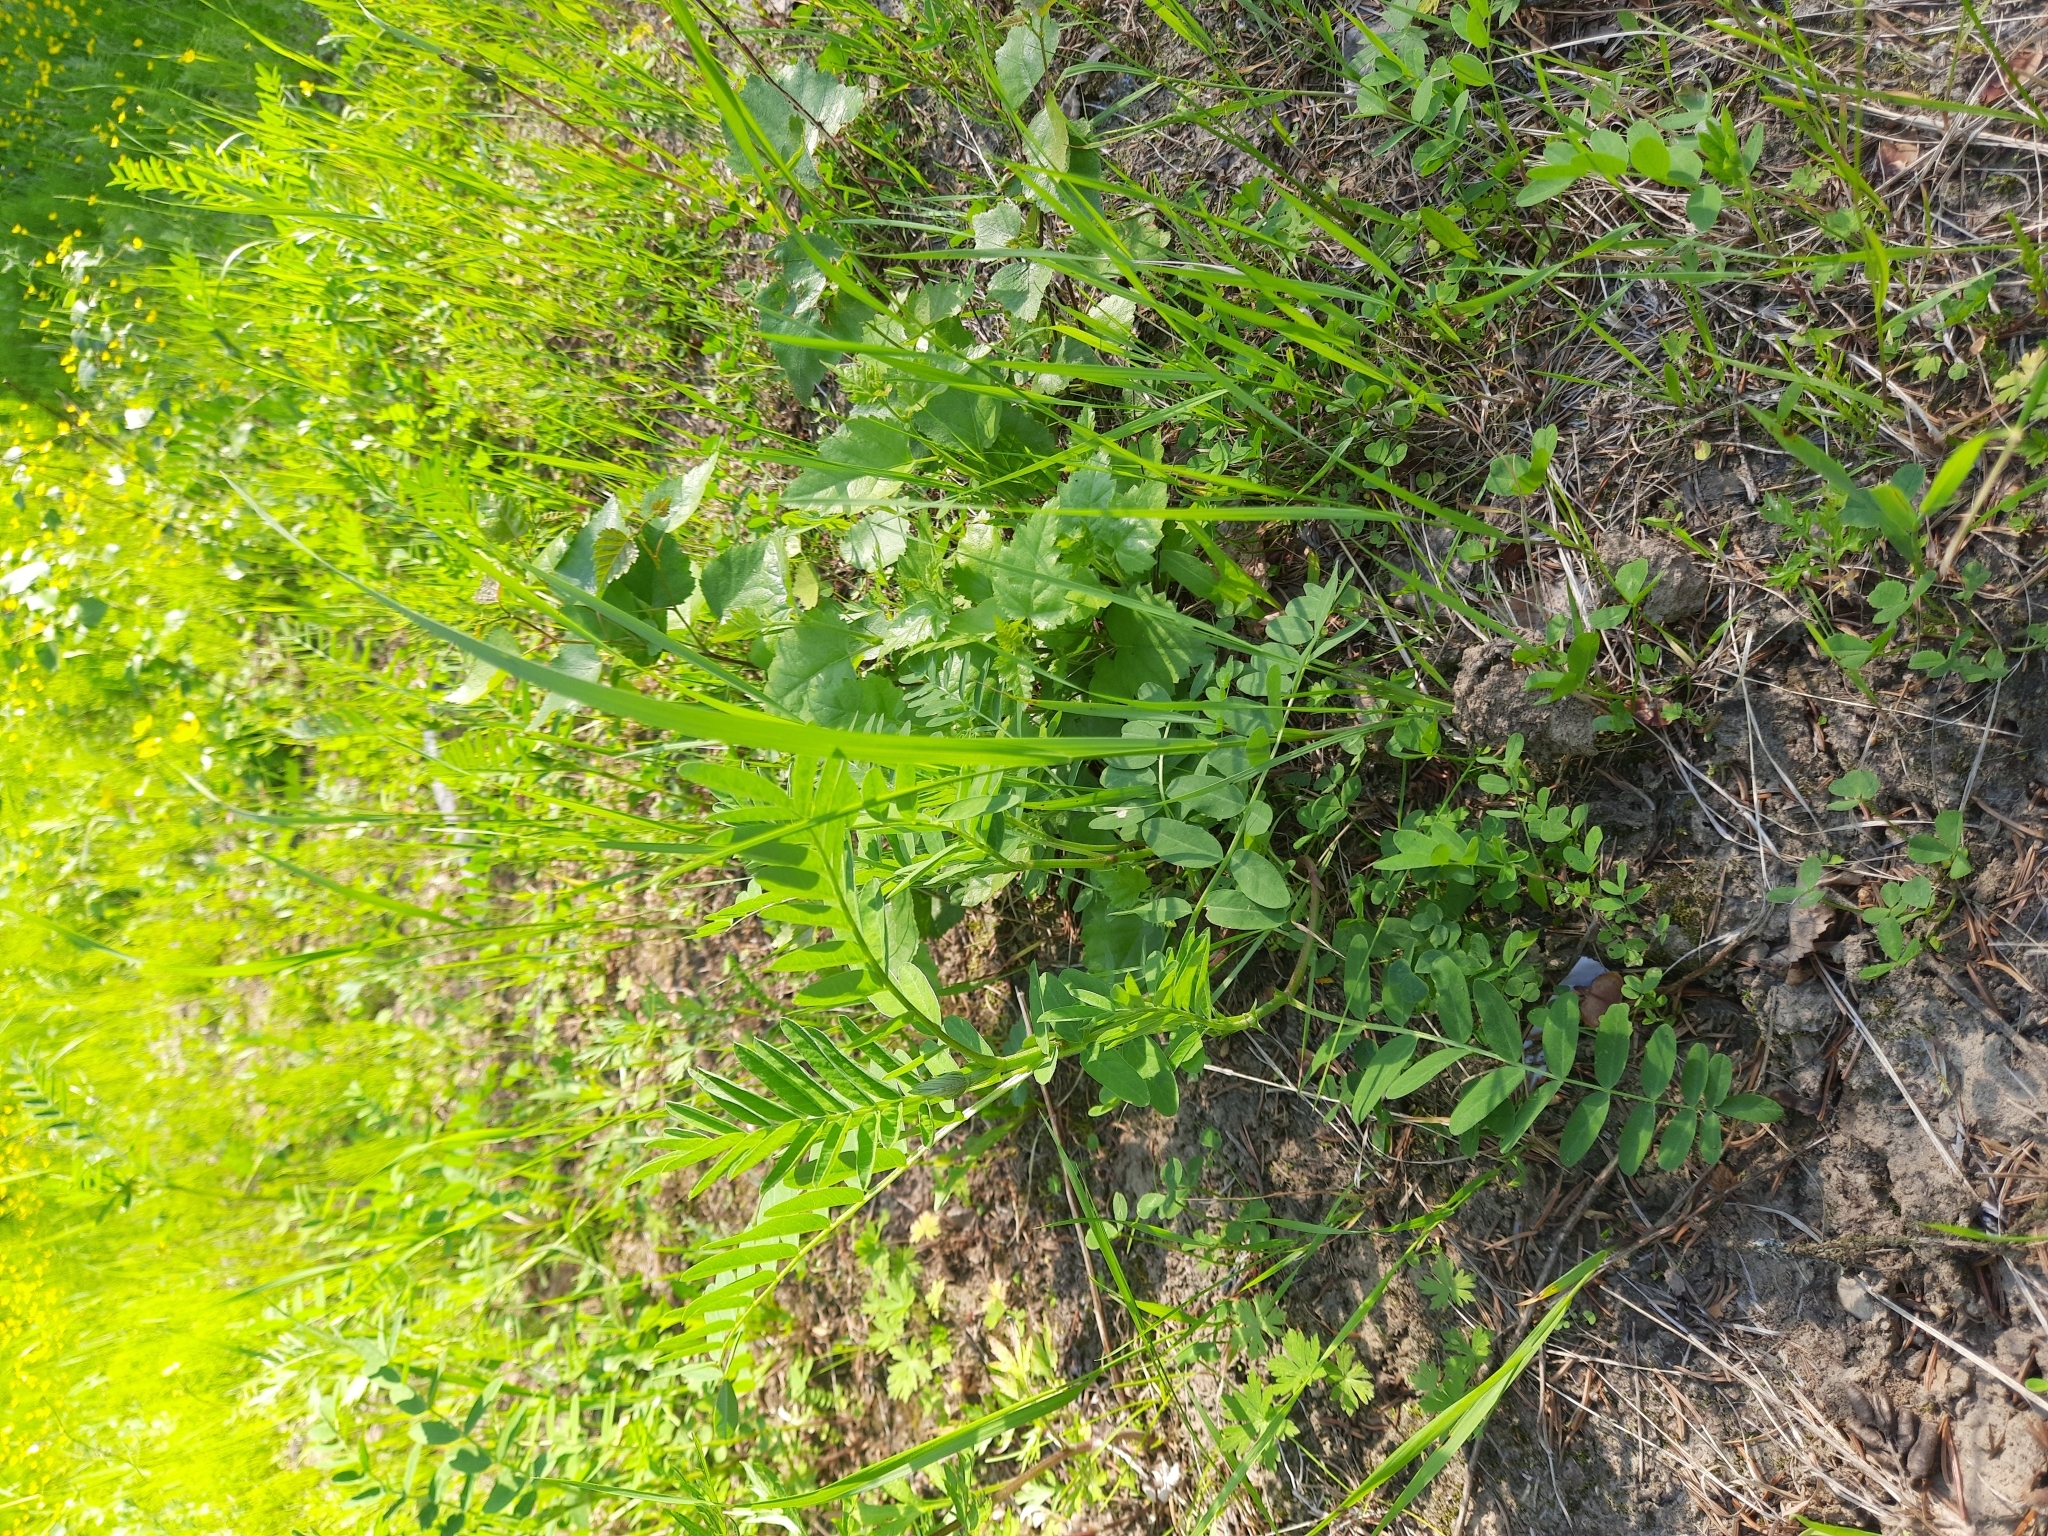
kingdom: Plantae
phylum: Tracheophyta
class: Magnoliopsida
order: Fabales
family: Fabaceae
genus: Astragalus
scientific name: Astragalus uliginosus
